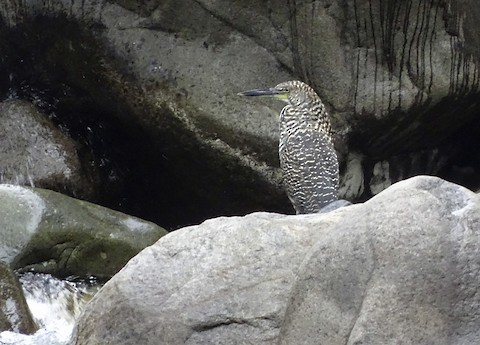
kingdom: Animalia
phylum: Chordata
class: Aves
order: Pelecaniformes
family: Ardeidae
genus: Tigrisoma
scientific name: Tigrisoma fasciatum
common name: Fasciated tiger-heron
